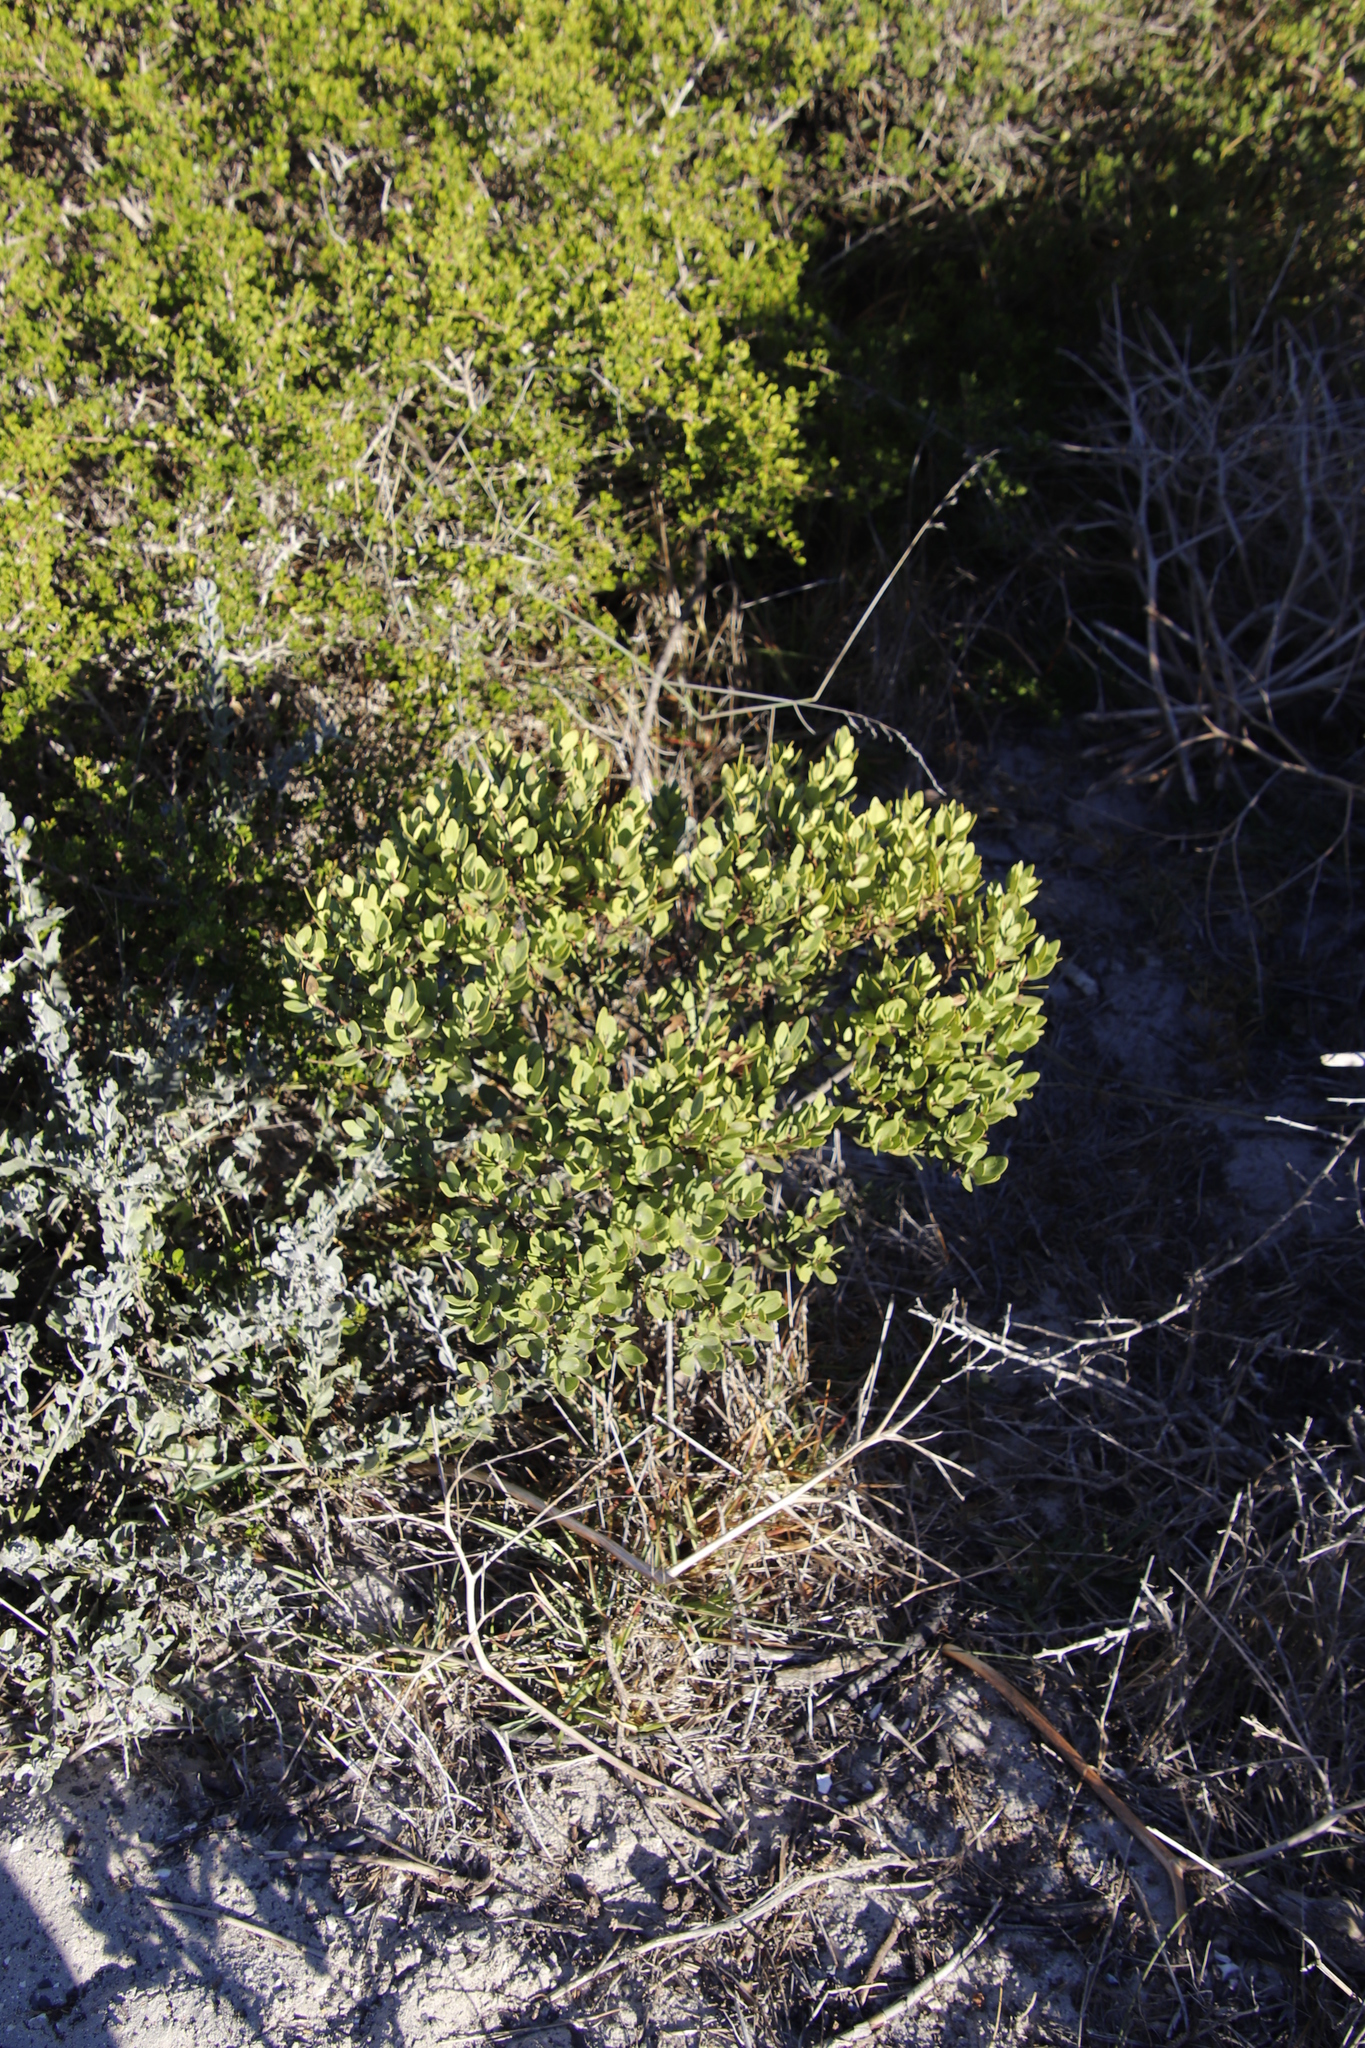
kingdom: Plantae
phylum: Tracheophyta
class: Magnoliopsida
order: Ericales
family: Ebenaceae
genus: Euclea
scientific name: Euclea racemosa
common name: Dune guarri
